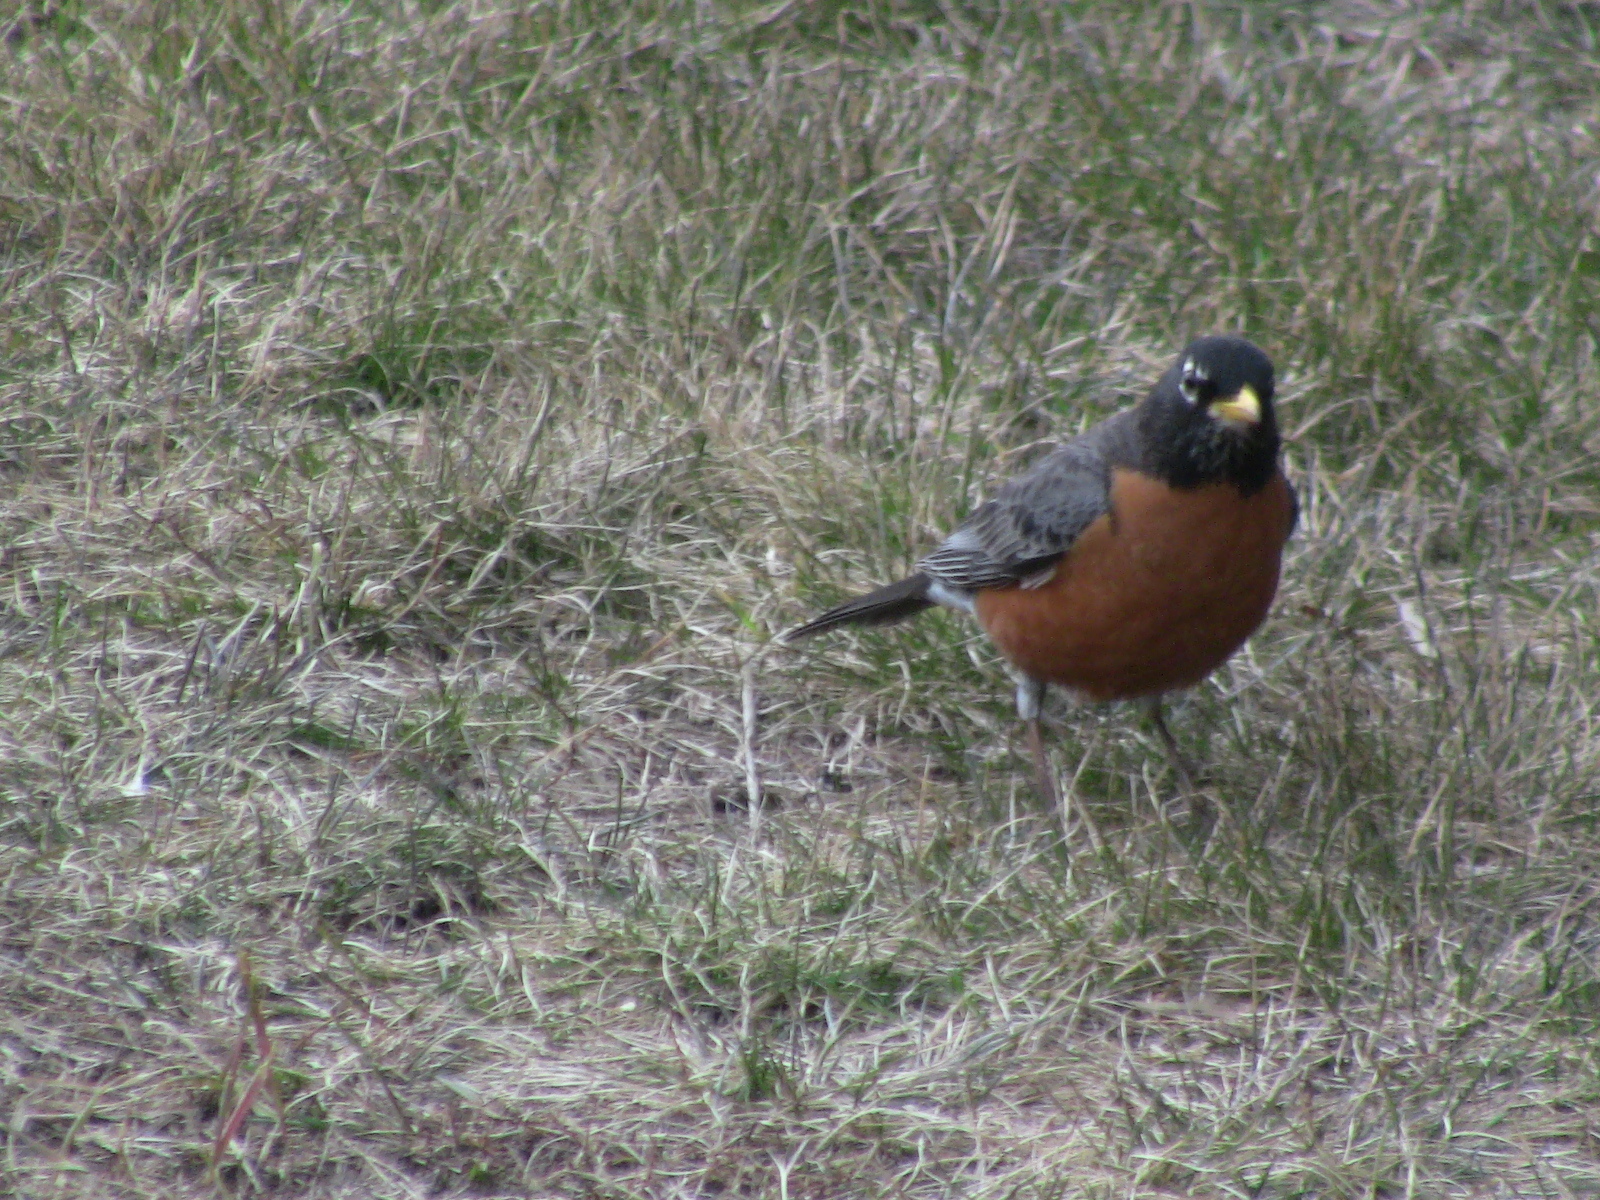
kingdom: Animalia
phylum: Chordata
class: Aves
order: Passeriformes
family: Turdidae
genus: Turdus
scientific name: Turdus migratorius
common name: American robin
